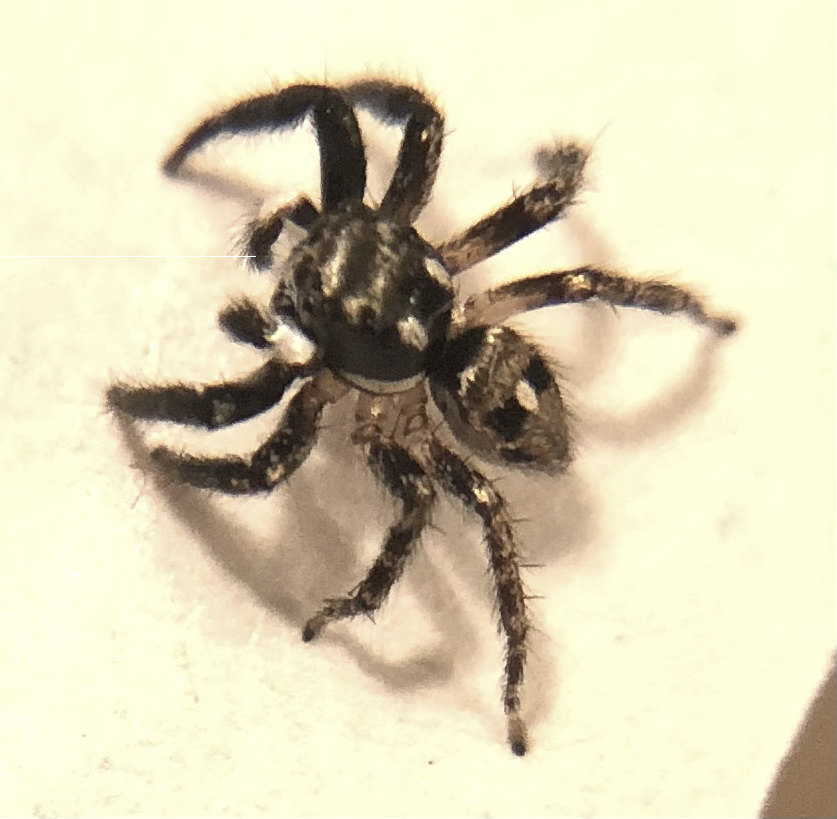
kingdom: Animalia
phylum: Arthropoda
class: Arachnida
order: Araneae
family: Salticidae
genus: Anasaitis
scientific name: Anasaitis canosa
